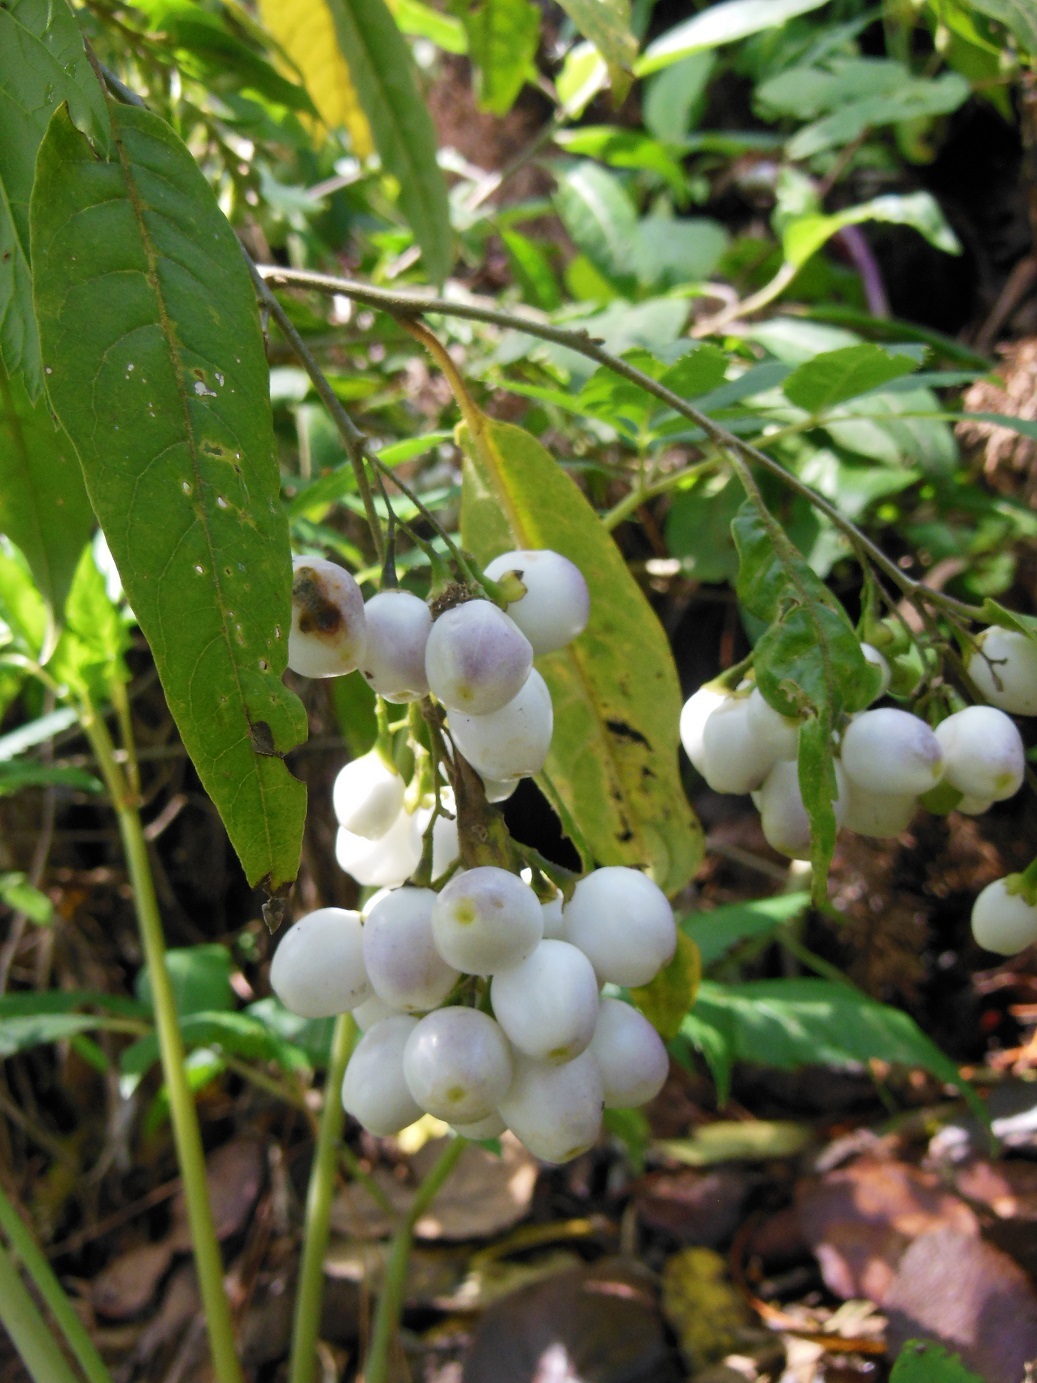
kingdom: Plantae
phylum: Tracheophyta
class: Magnoliopsida
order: Solanales
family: Solanaceae
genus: Cestrum
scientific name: Cestrum guatemalense
